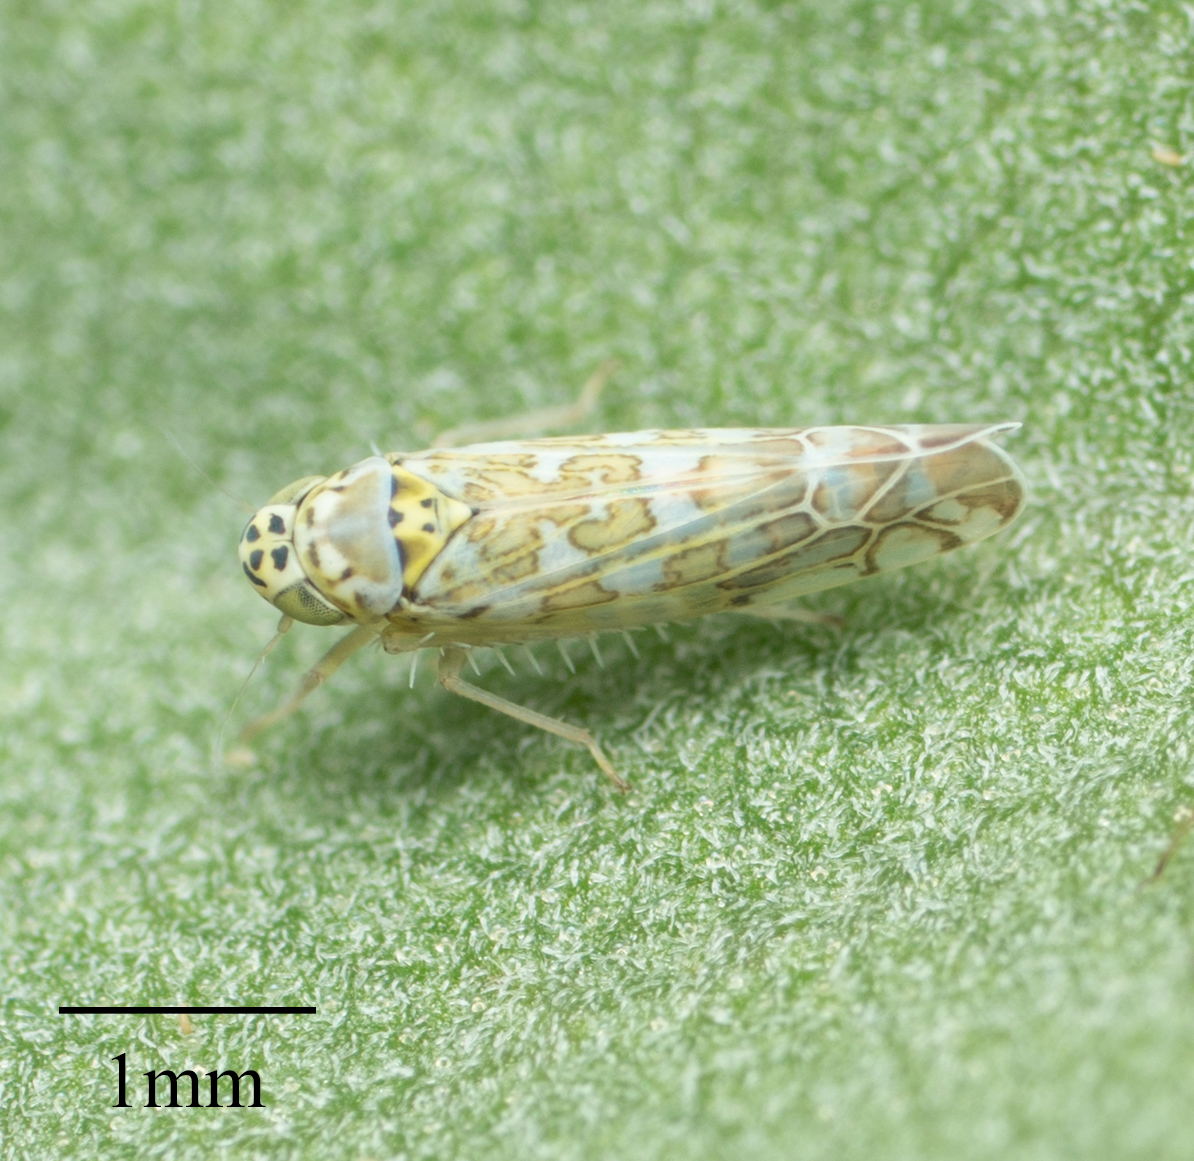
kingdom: Animalia
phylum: Arthropoda
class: Insecta
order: Hemiptera
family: Cicadellidae
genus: Eupteryx
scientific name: Eupteryx decemnotata
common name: Ligurian leafhopper
